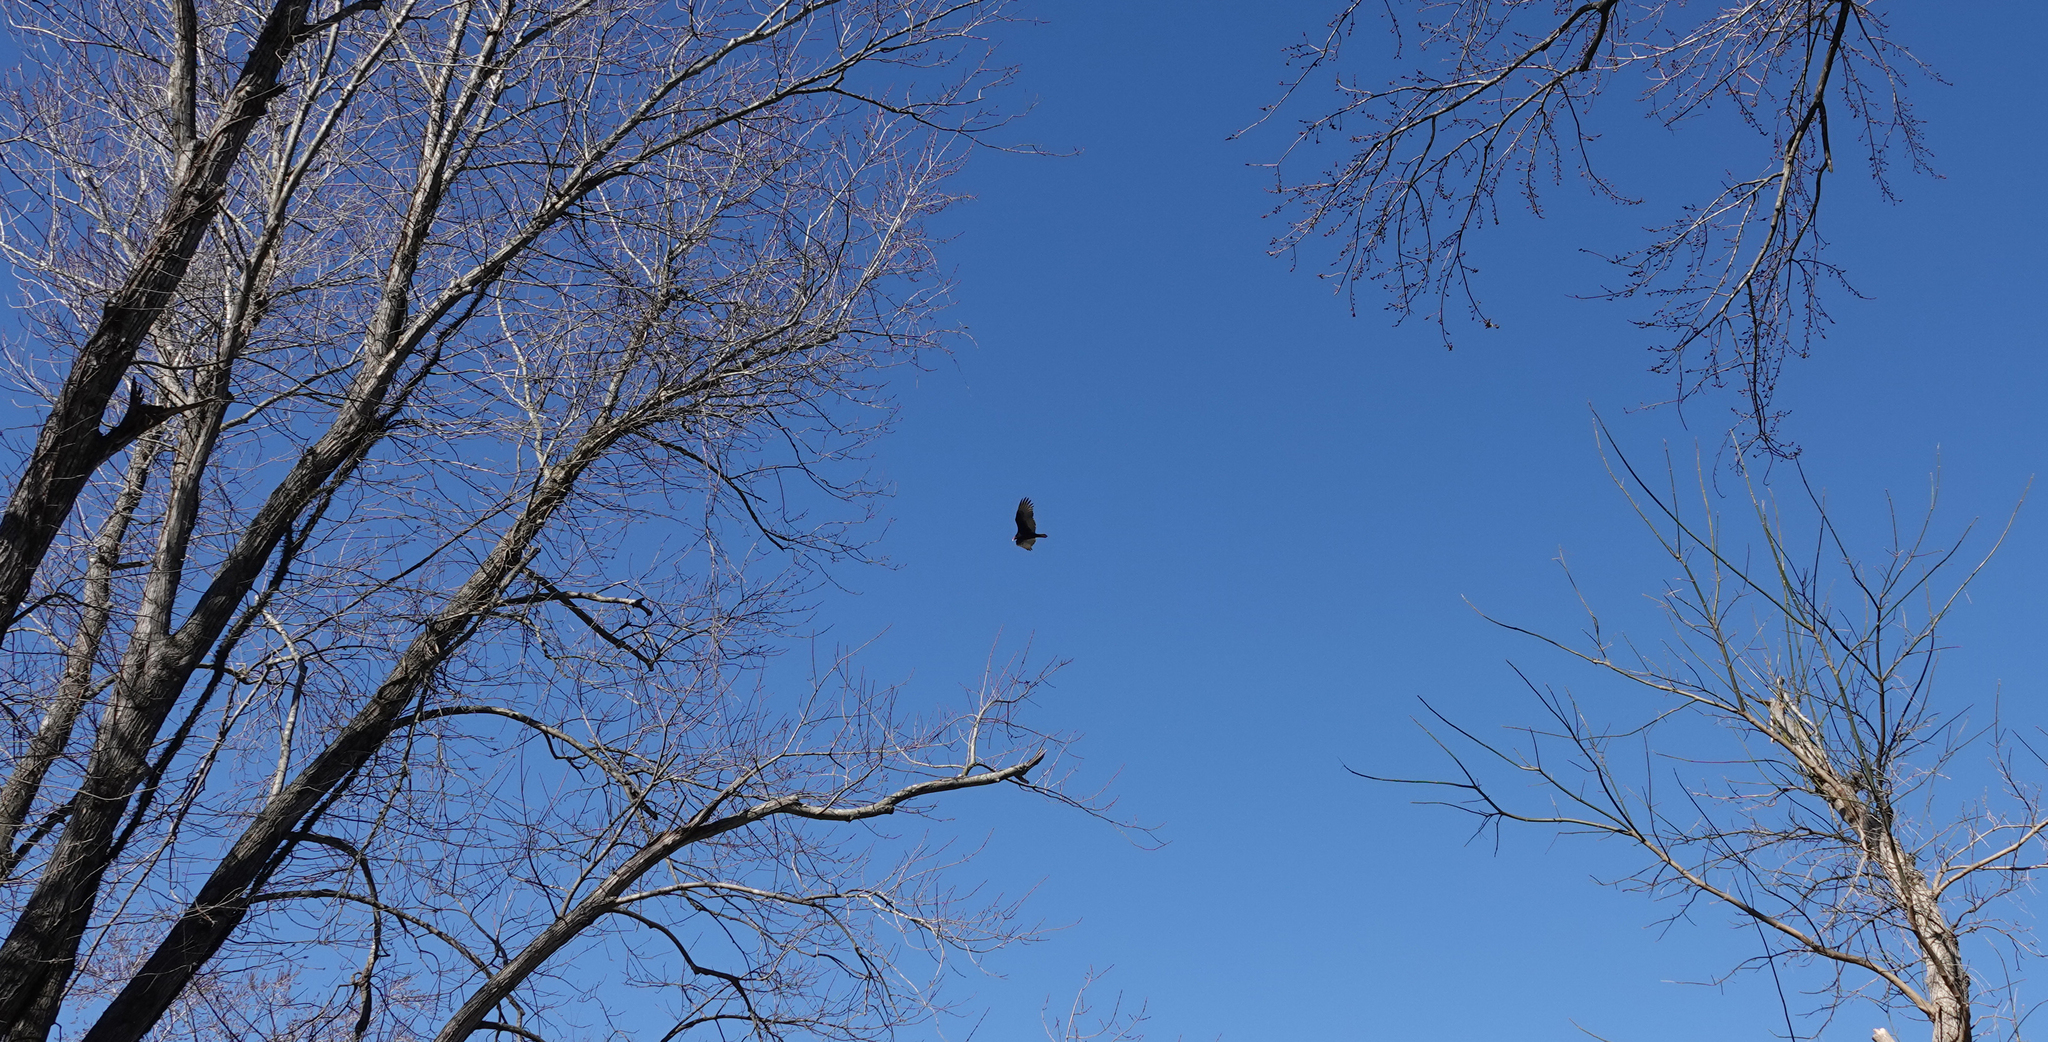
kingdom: Animalia
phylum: Chordata
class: Aves
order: Accipitriformes
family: Cathartidae
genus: Cathartes
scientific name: Cathartes aura
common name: Turkey vulture
